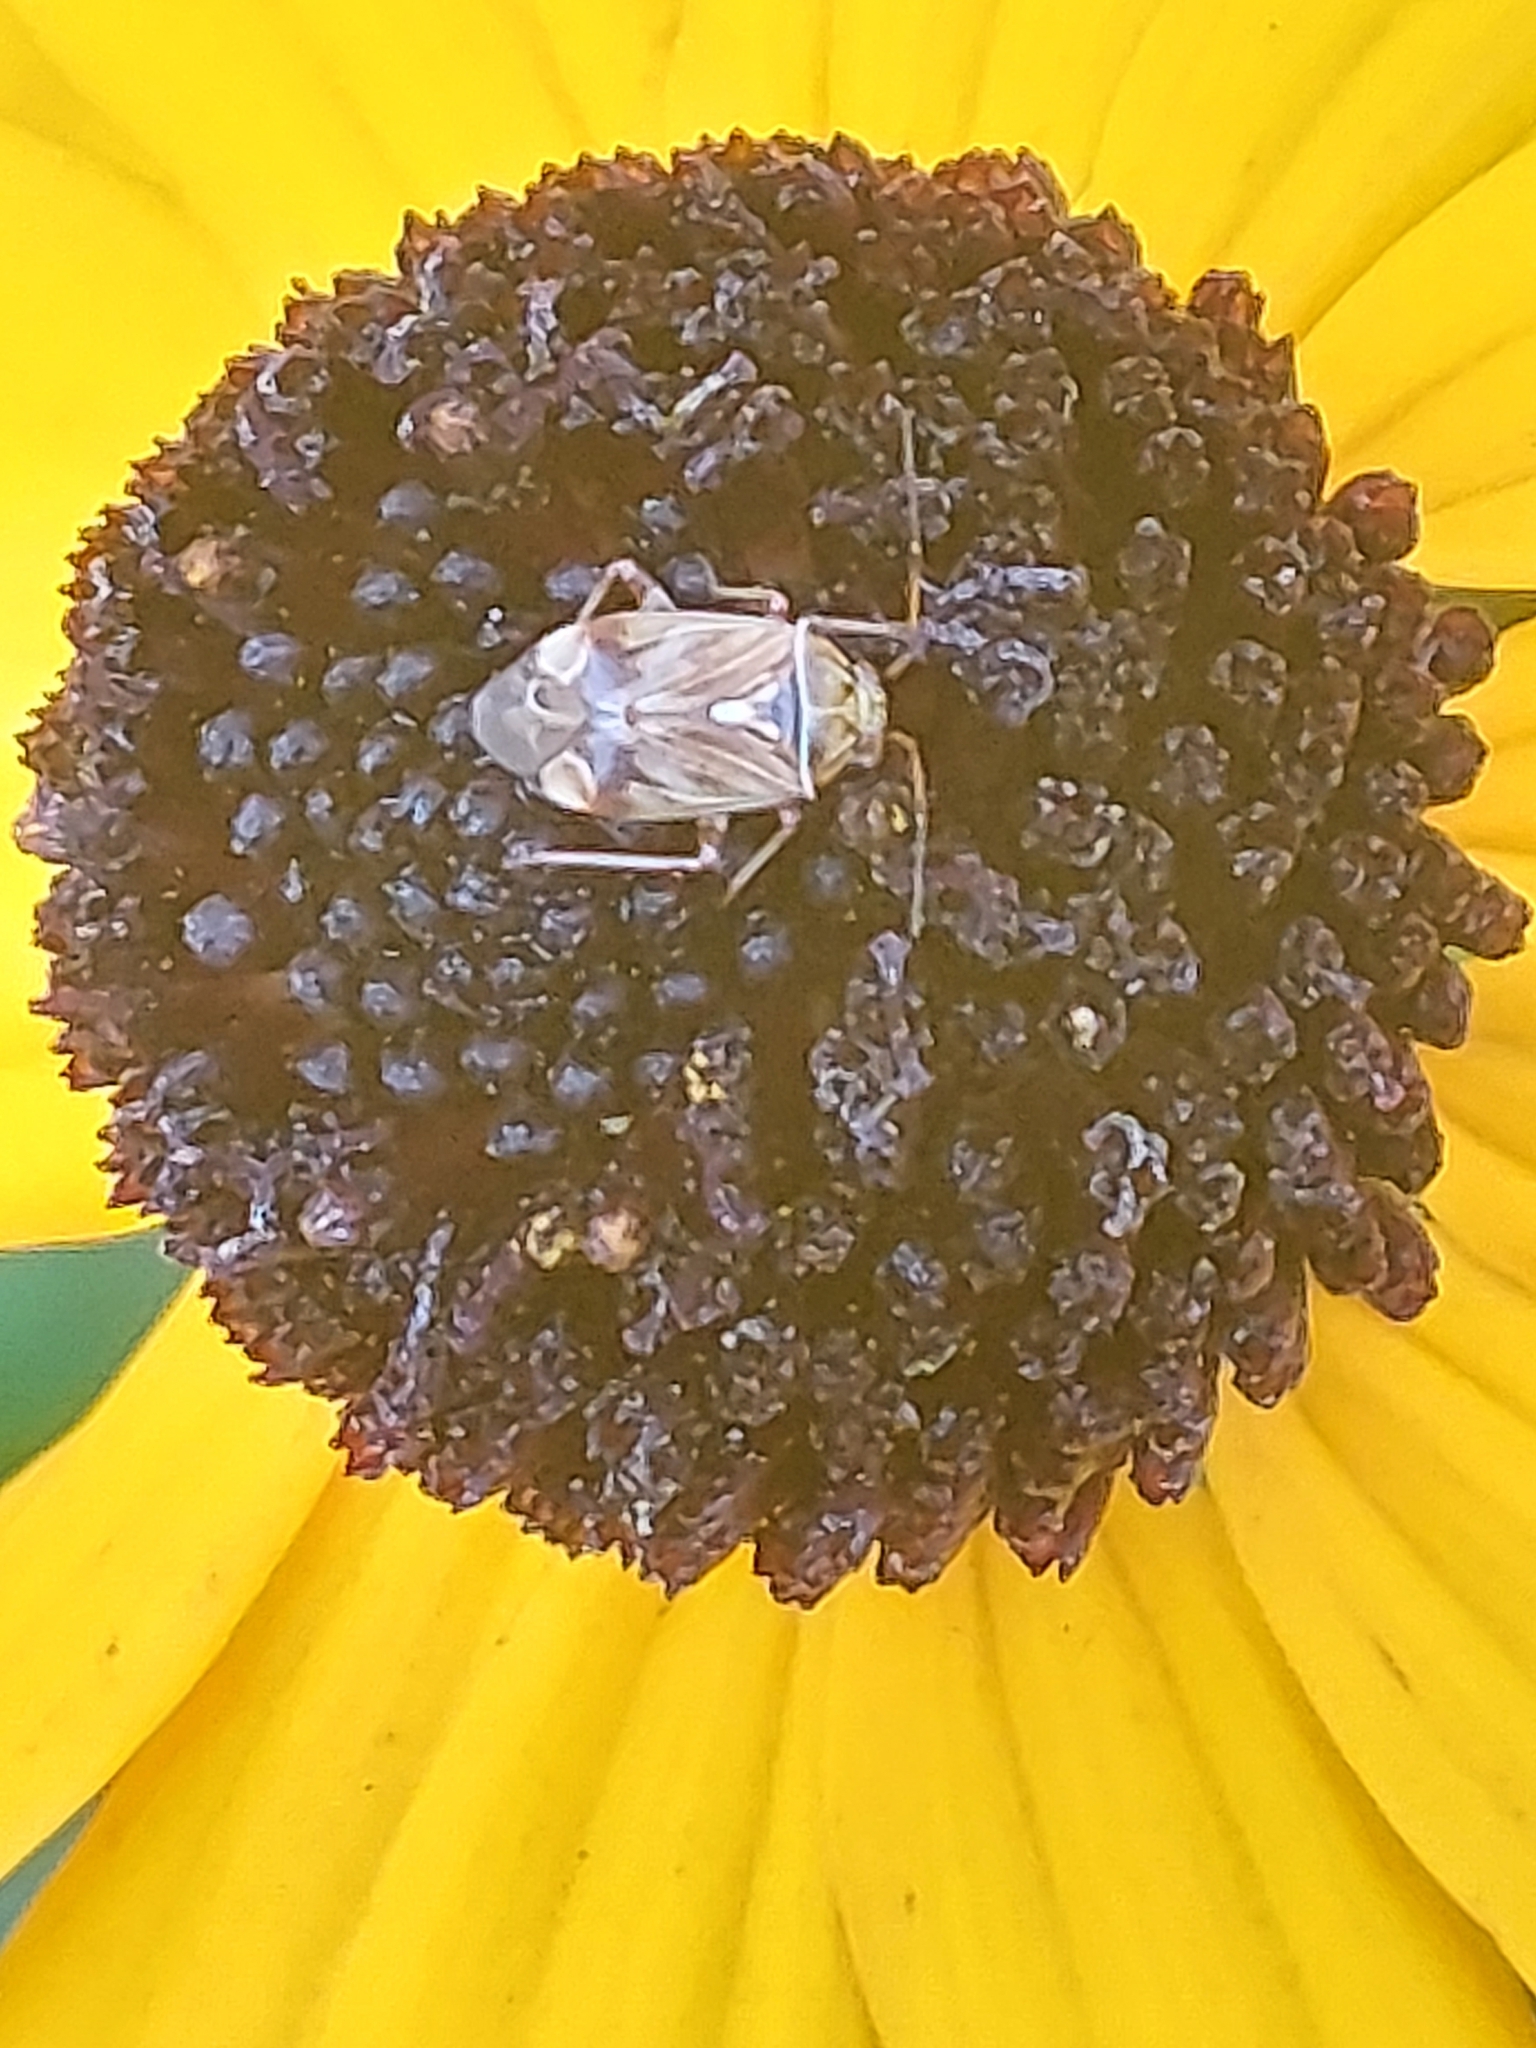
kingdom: Animalia
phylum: Arthropoda
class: Insecta
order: Hemiptera
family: Miridae
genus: Lygus
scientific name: Lygus lineolaris
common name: North american tarnished plant bug
